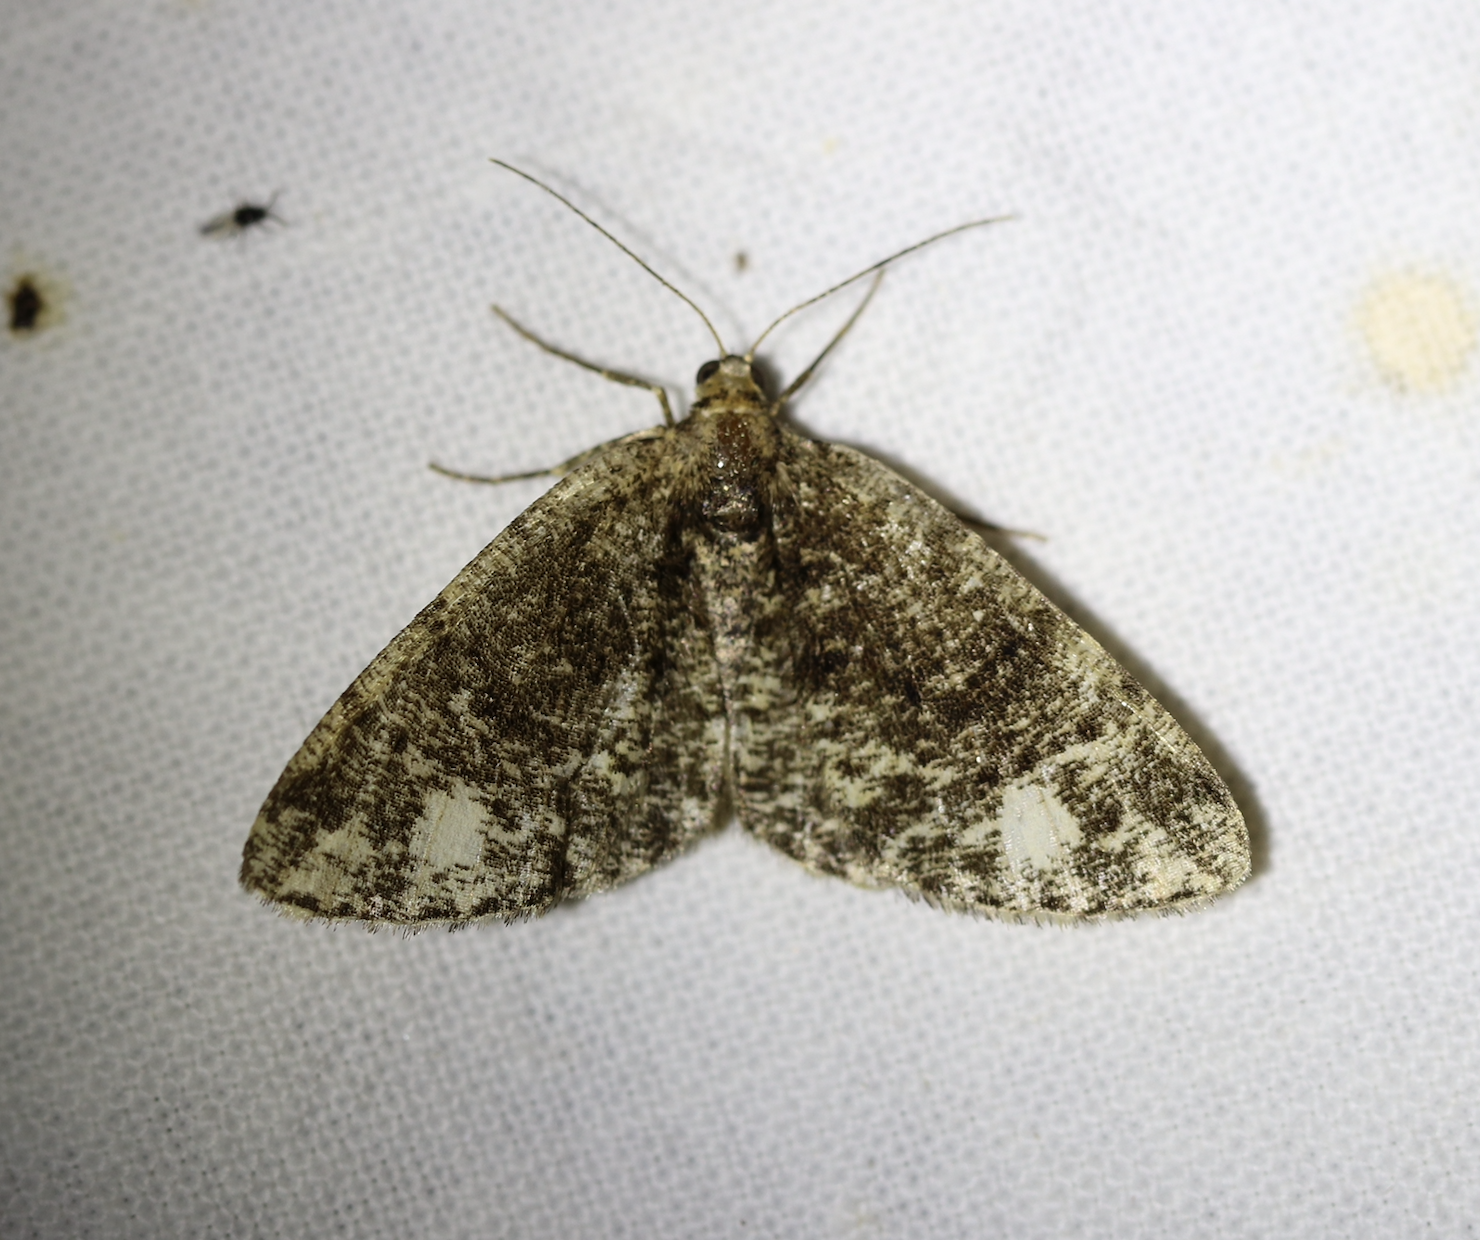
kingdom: Animalia
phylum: Arthropoda
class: Insecta
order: Lepidoptera
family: Geometridae
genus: Parectropis
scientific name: Parectropis similaria
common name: Brindled white-spot
